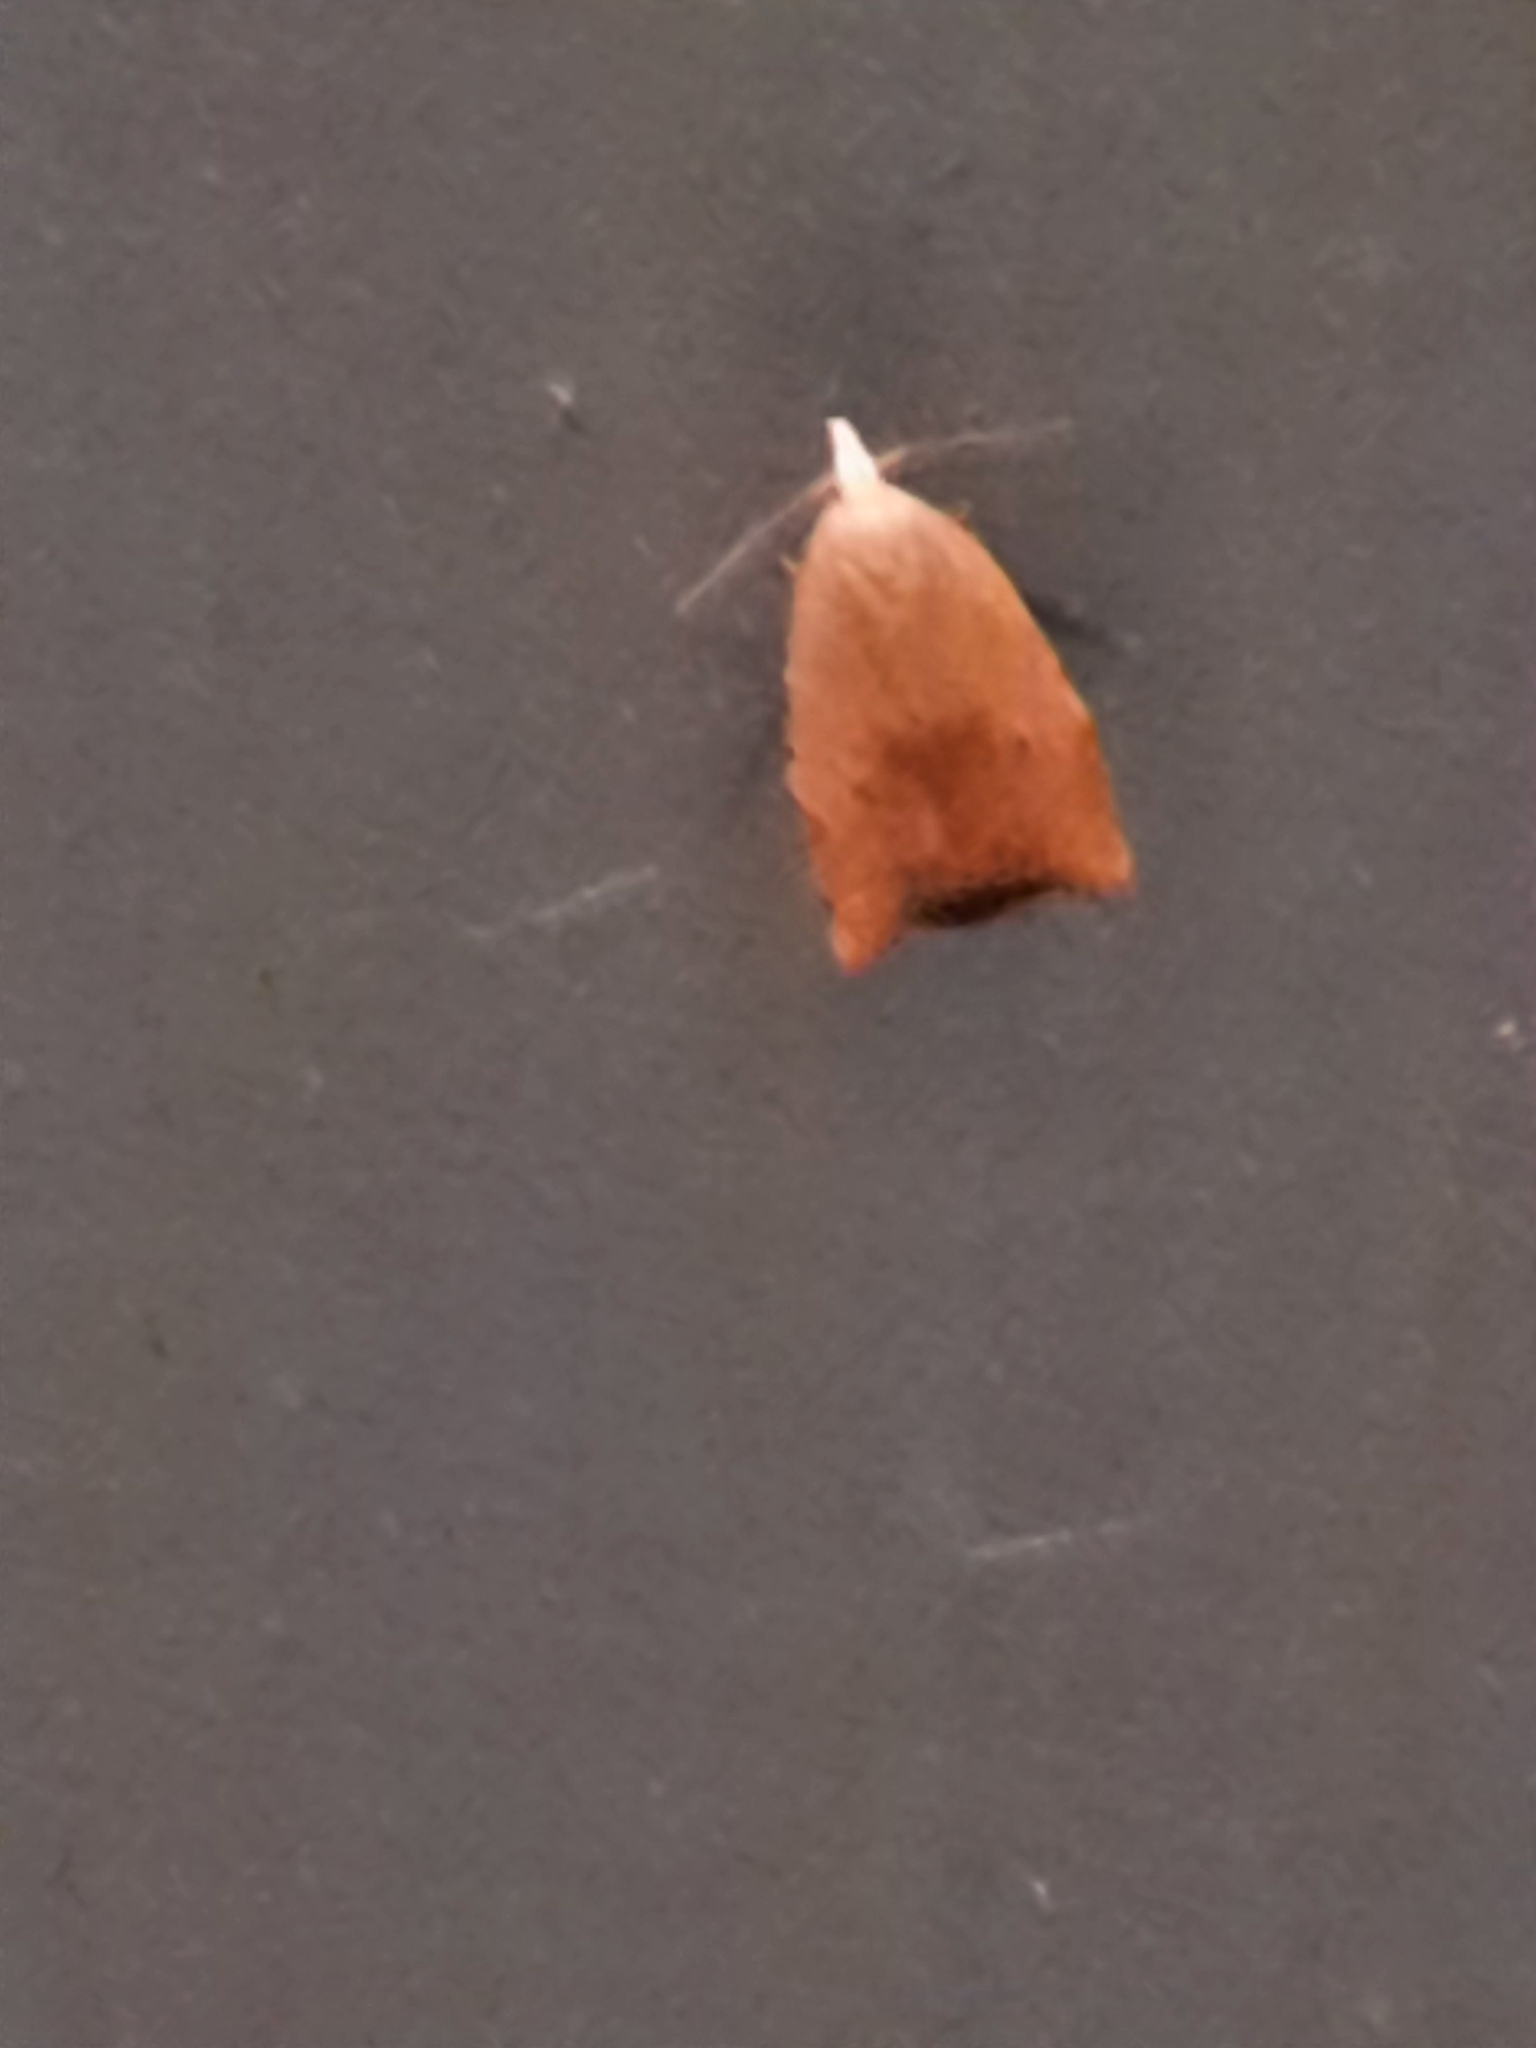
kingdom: Animalia
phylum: Arthropoda
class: Insecta
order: Lepidoptera
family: Tortricidae
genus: Coelostathma
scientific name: Coelostathma discopunctana
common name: Batman moth
